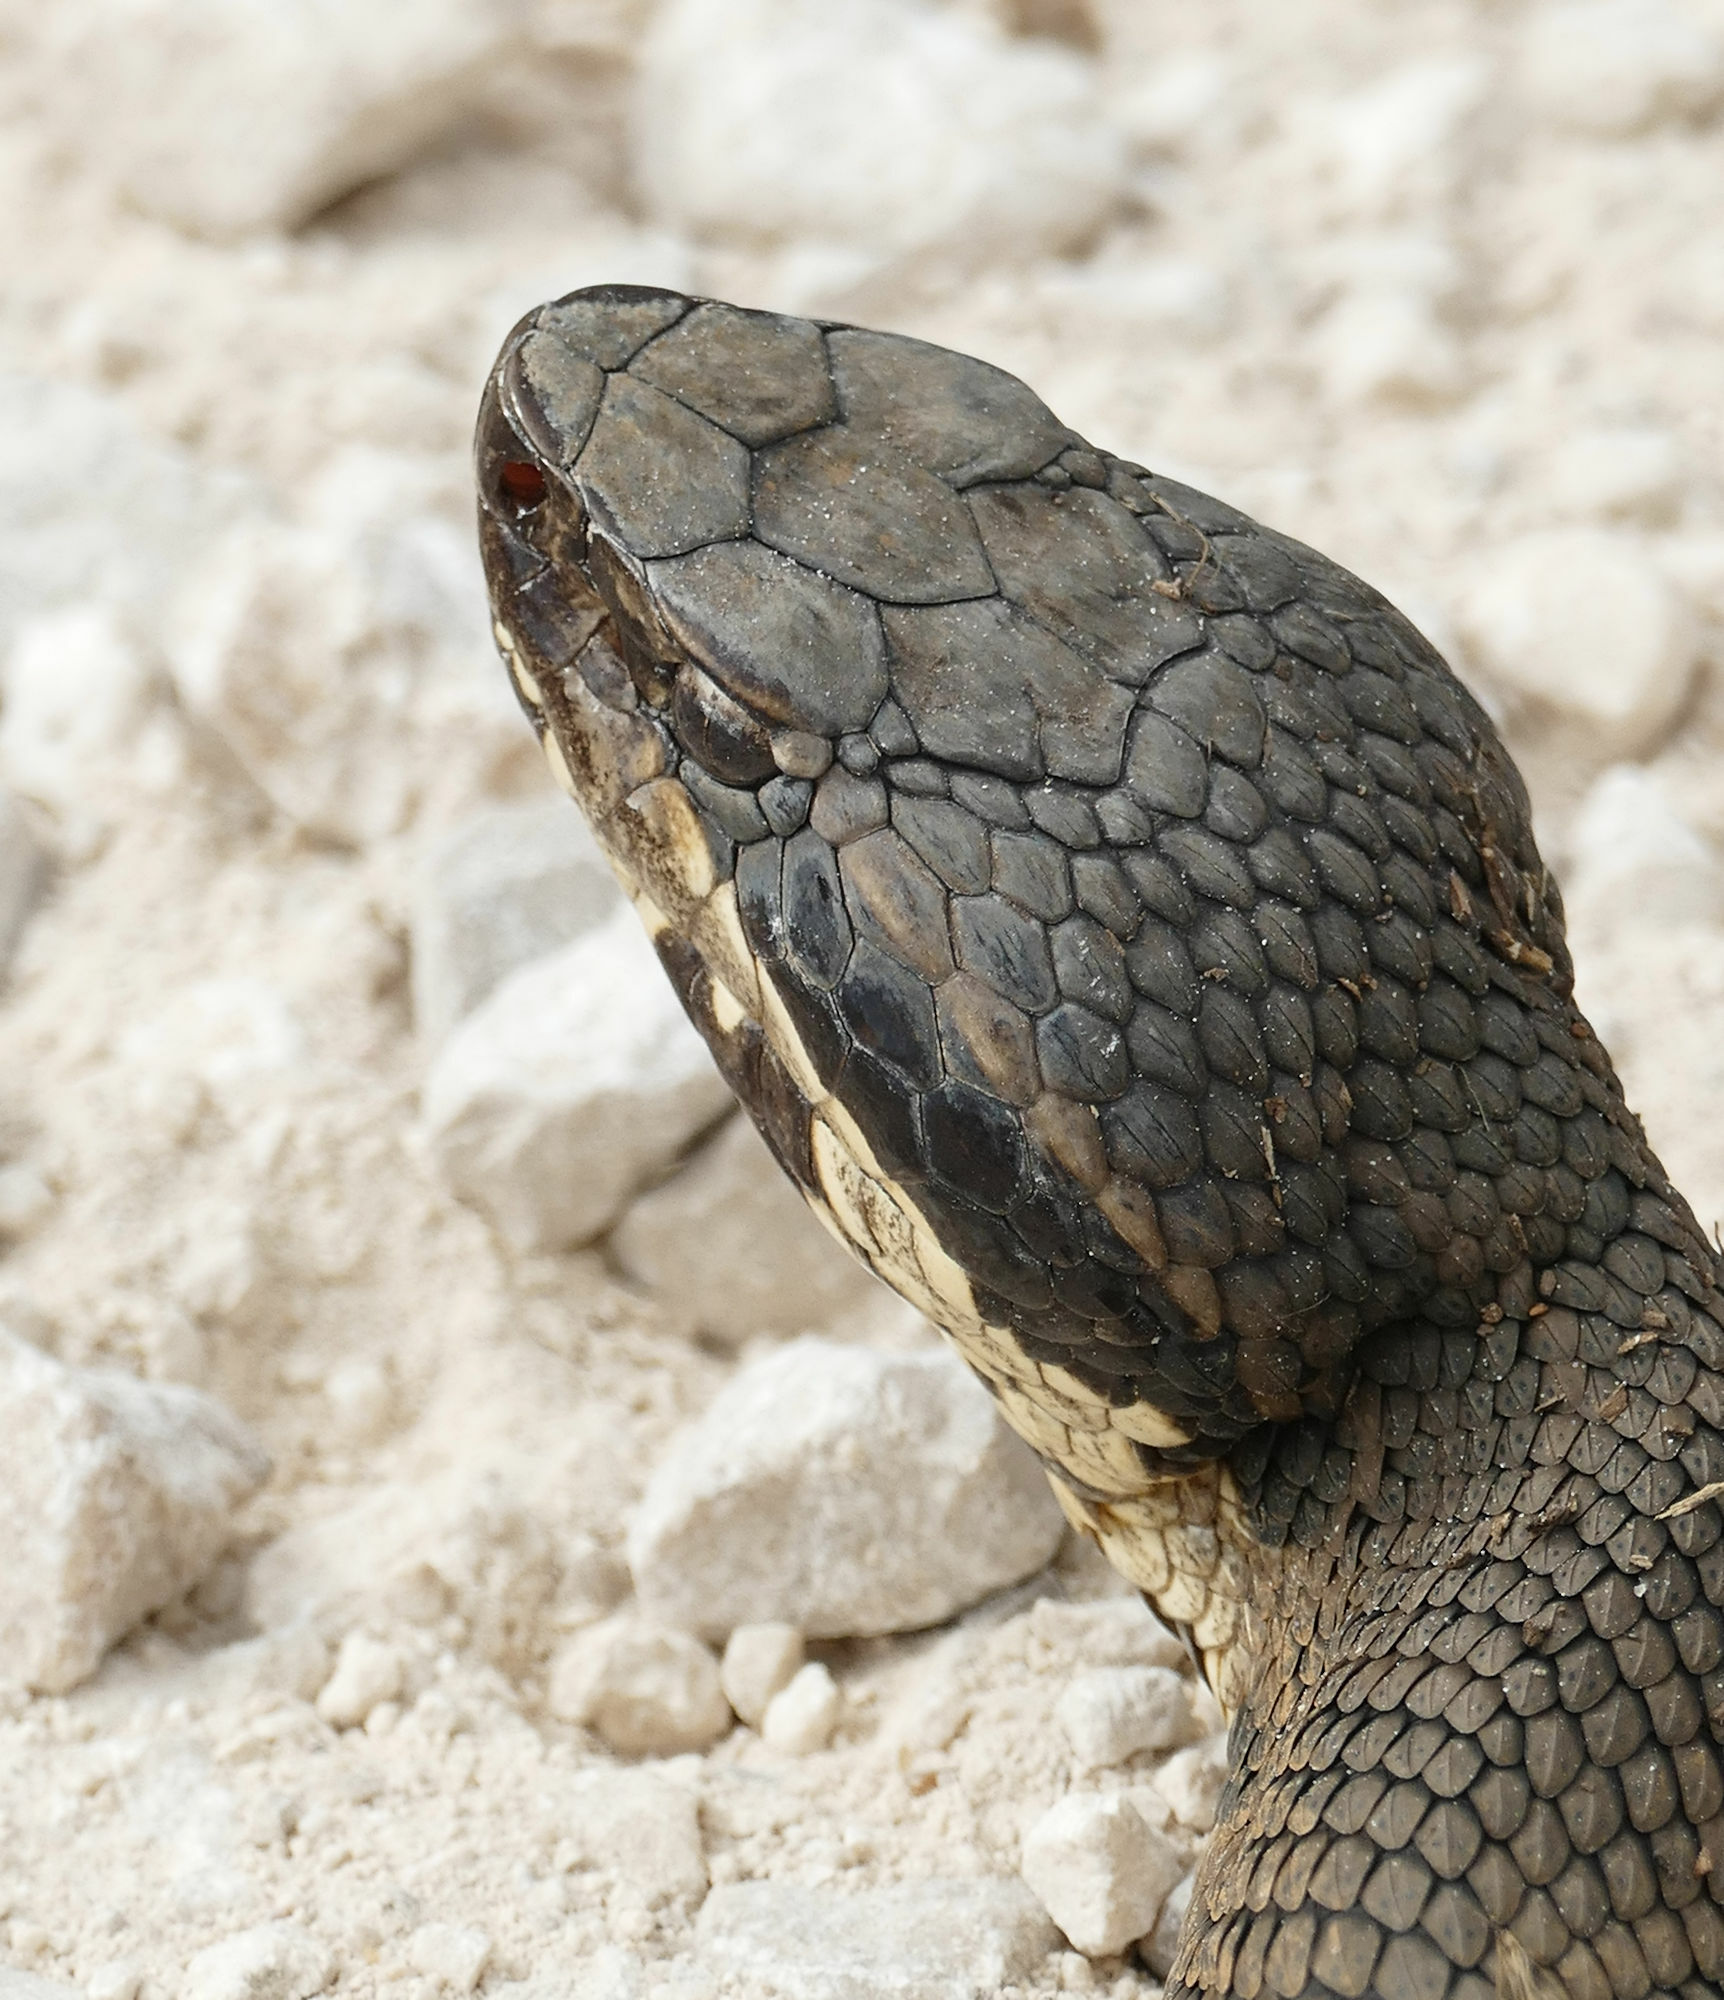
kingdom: Animalia
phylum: Chordata
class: Squamata
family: Viperidae
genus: Agkistrodon
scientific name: Agkistrodon piscivorus
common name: Cottonmouth
